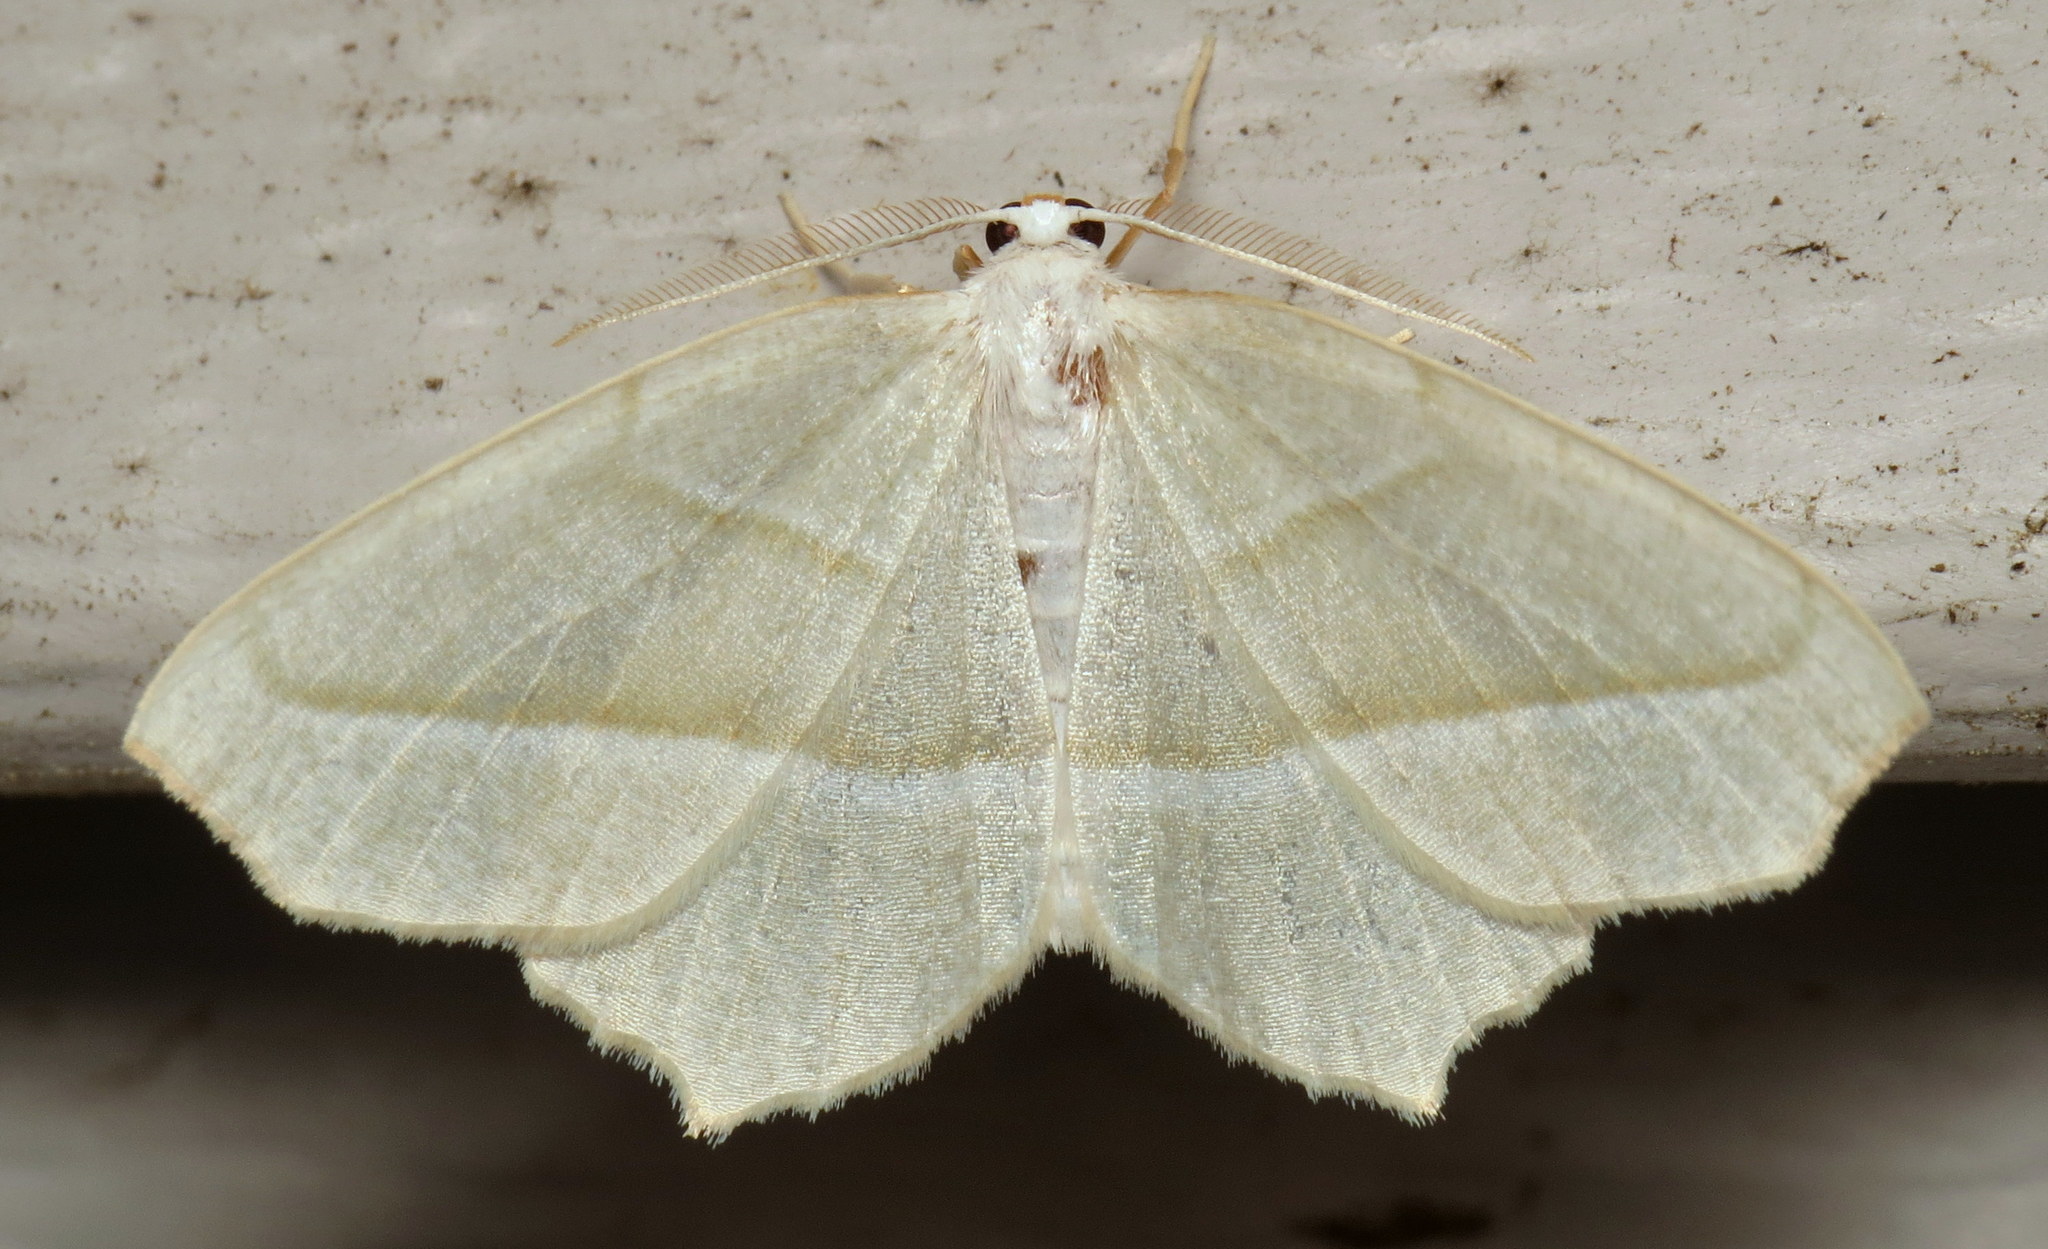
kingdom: Animalia
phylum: Arthropoda
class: Insecta
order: Lepidoptera
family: Geometridae
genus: Campaea
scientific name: Campaea perlata
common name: Fringed looper
